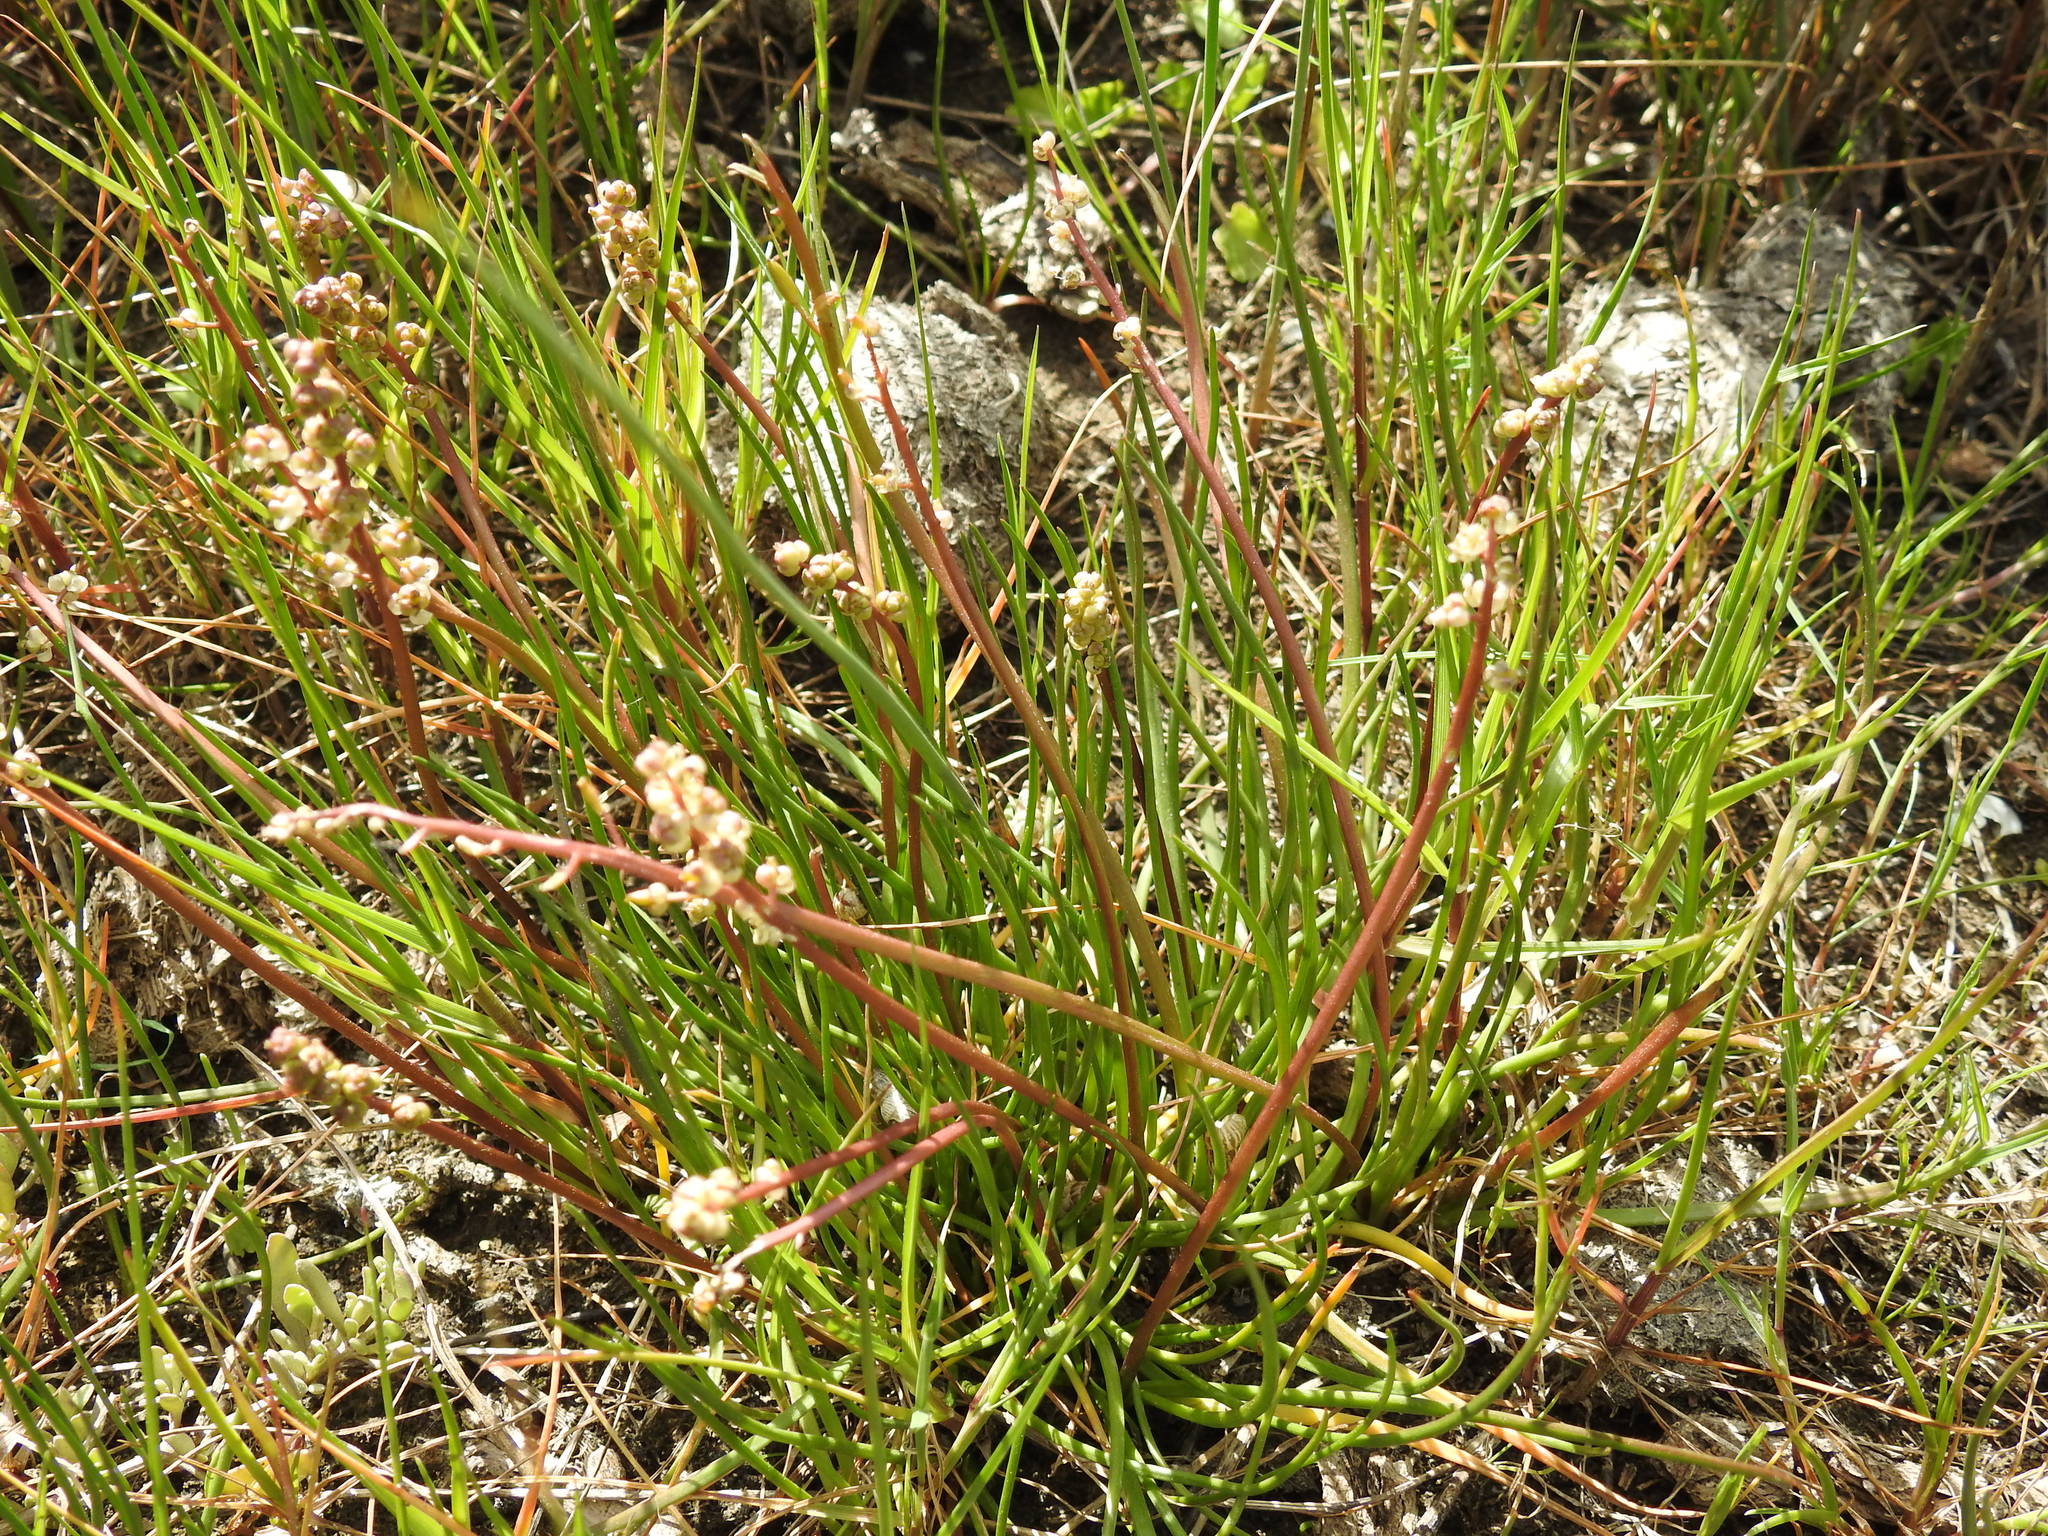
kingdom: Plantae
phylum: Tracheophyta
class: Liliopsida
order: Alismatales
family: Juncaginaceae
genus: Triglochin
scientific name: Triglochin barrelieri
